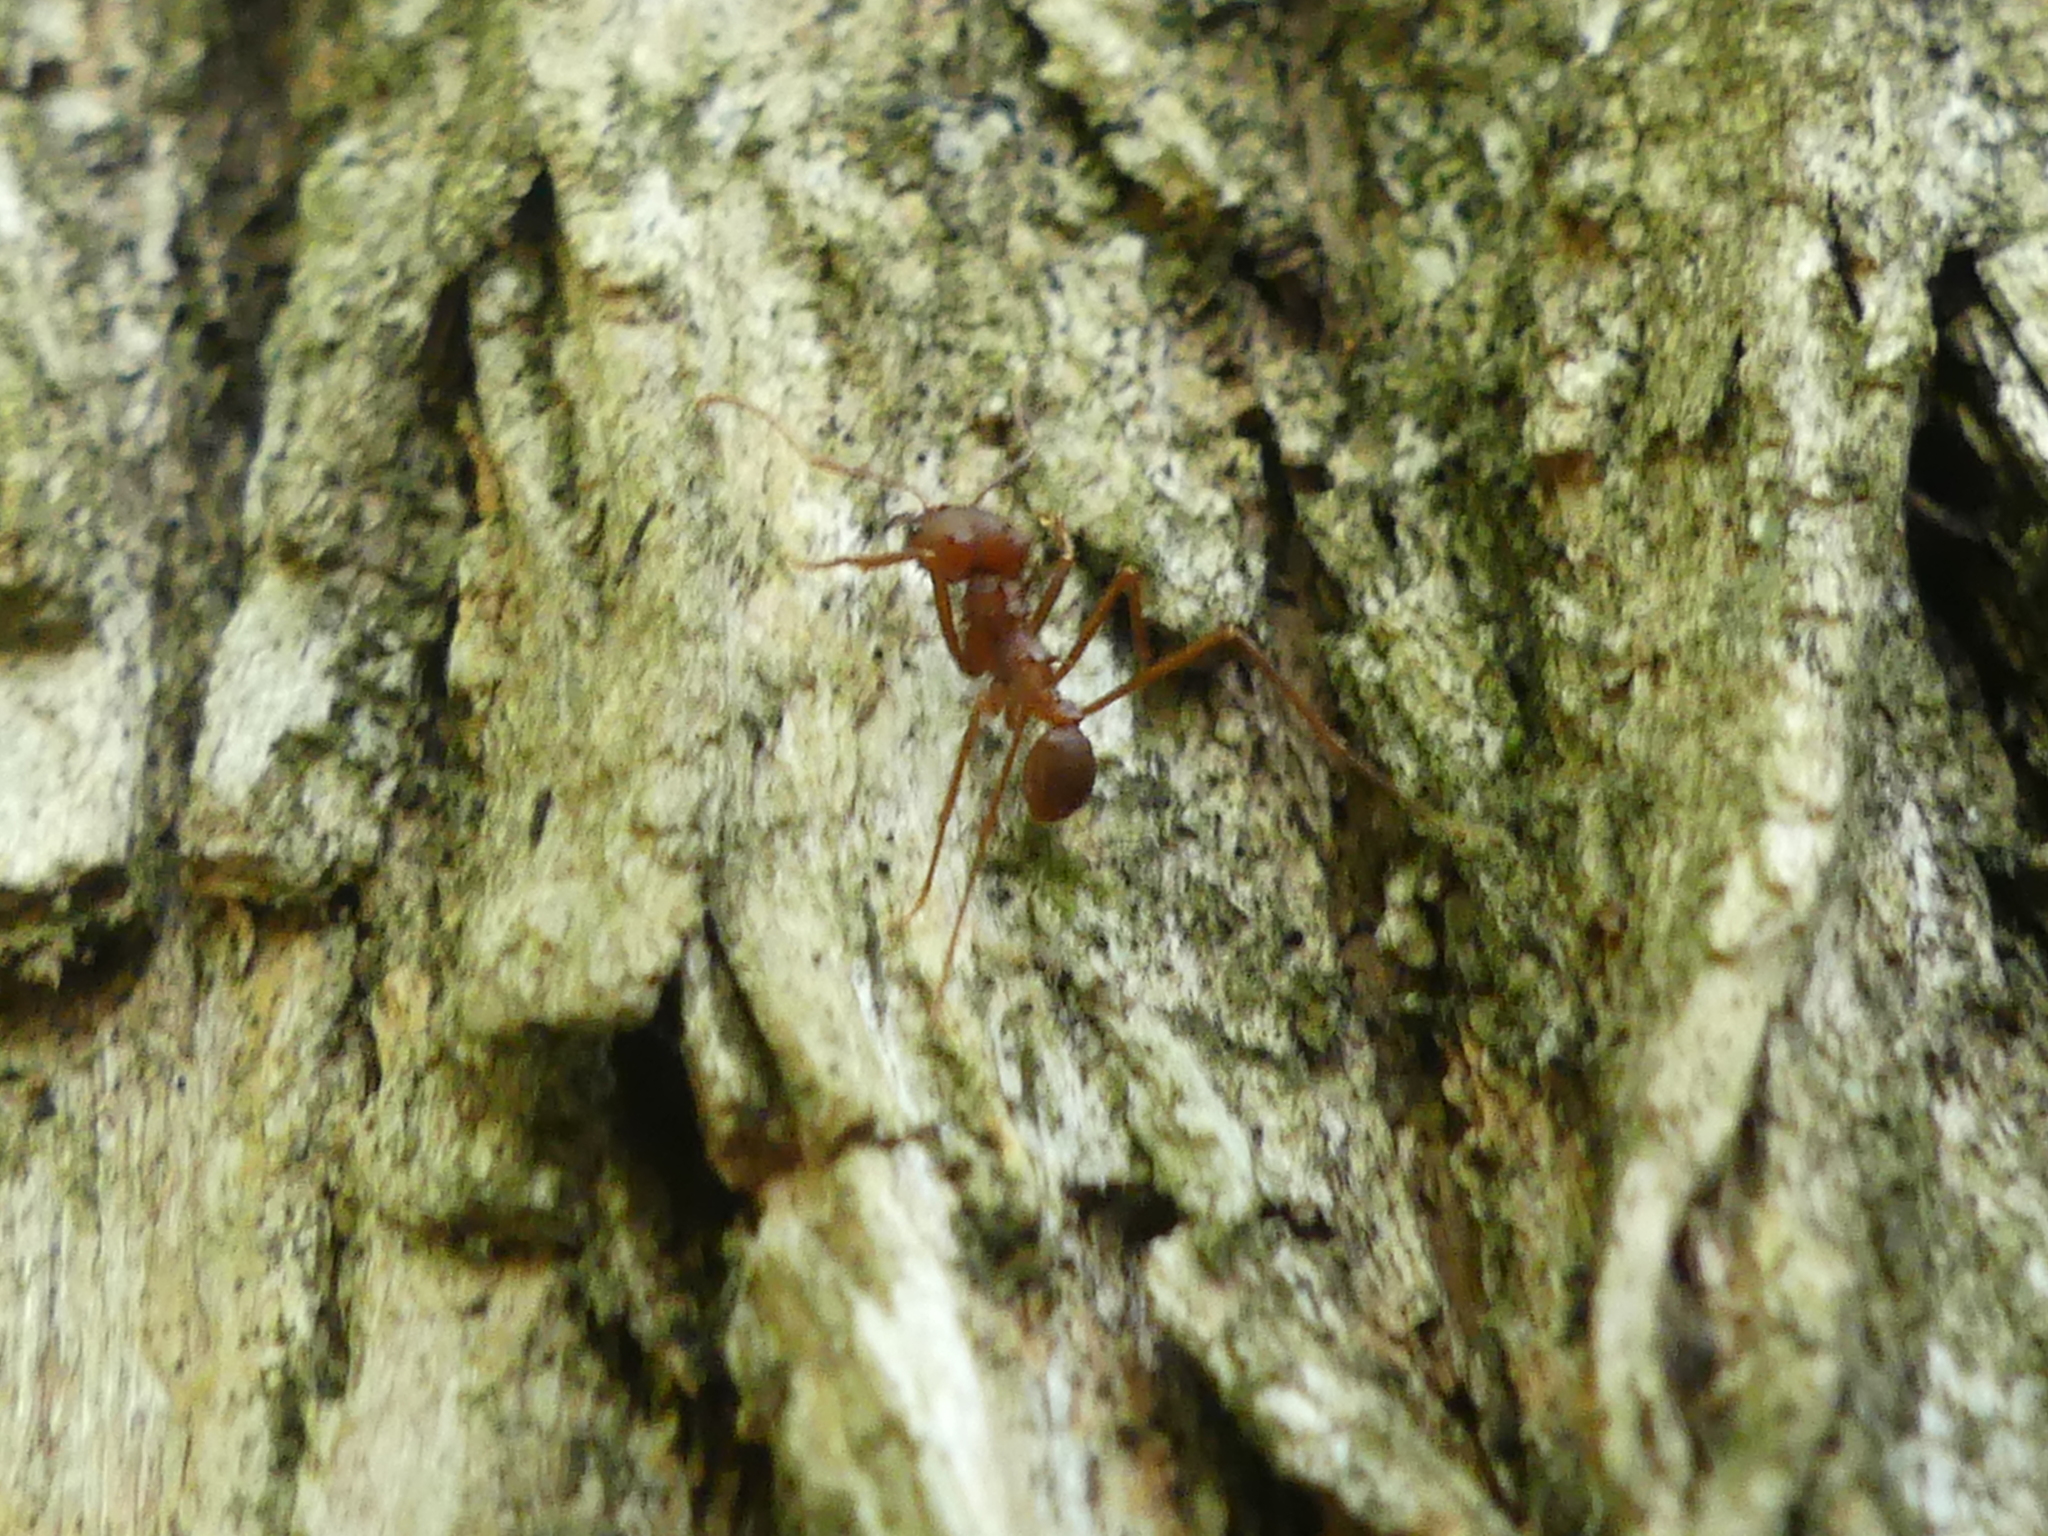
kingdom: Animalia
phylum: Arthropoda
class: Insecta
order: Hymenoptera
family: Formicidae
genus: Atta
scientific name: Atta texana
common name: Texas leafcutting ant
